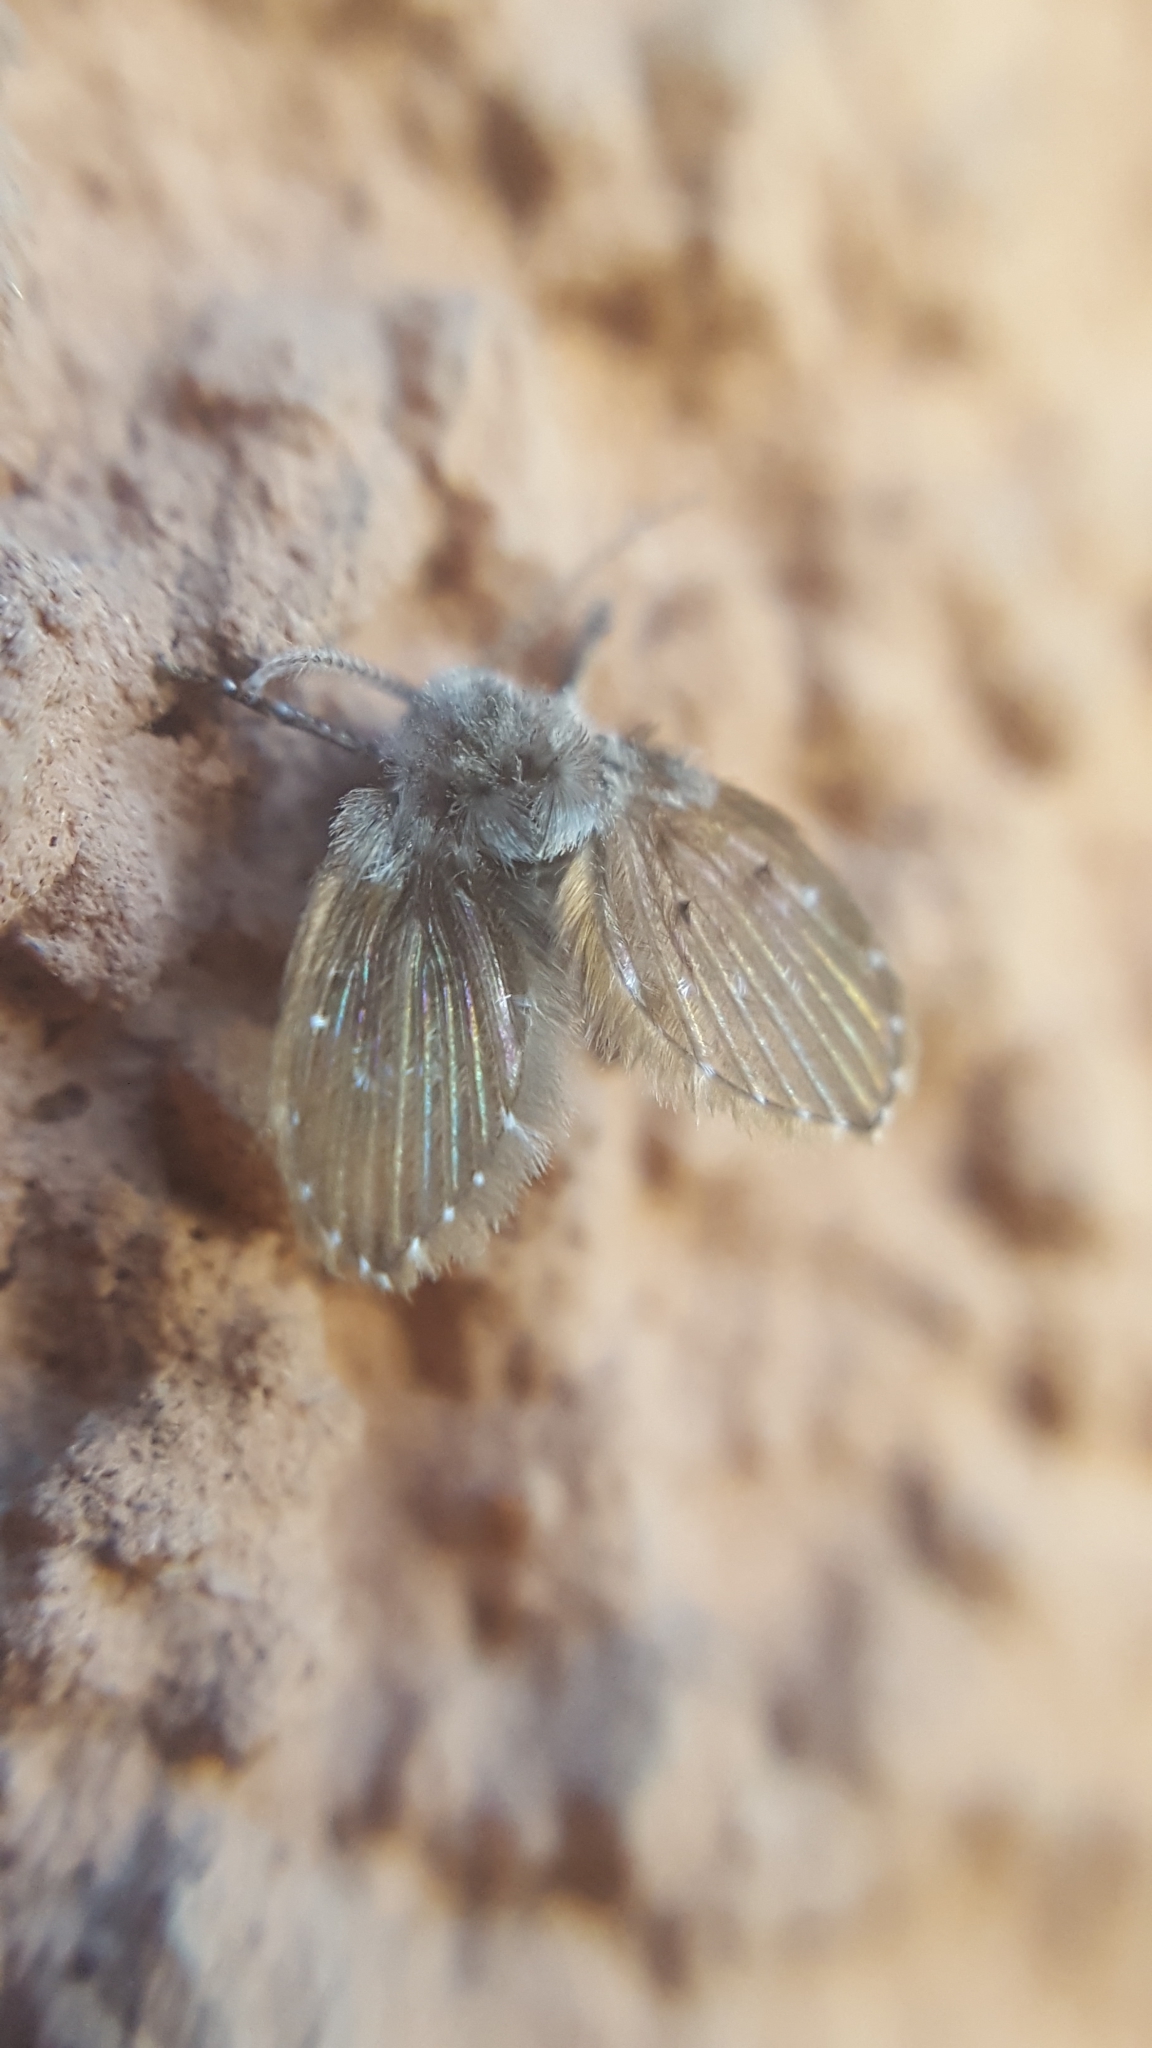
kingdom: Animalia
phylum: Arthropoda
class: Insecta
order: Diptera
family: Psychodidae
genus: Clogmia
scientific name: Clogmia albipunctatus
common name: White-spotted moth fly
